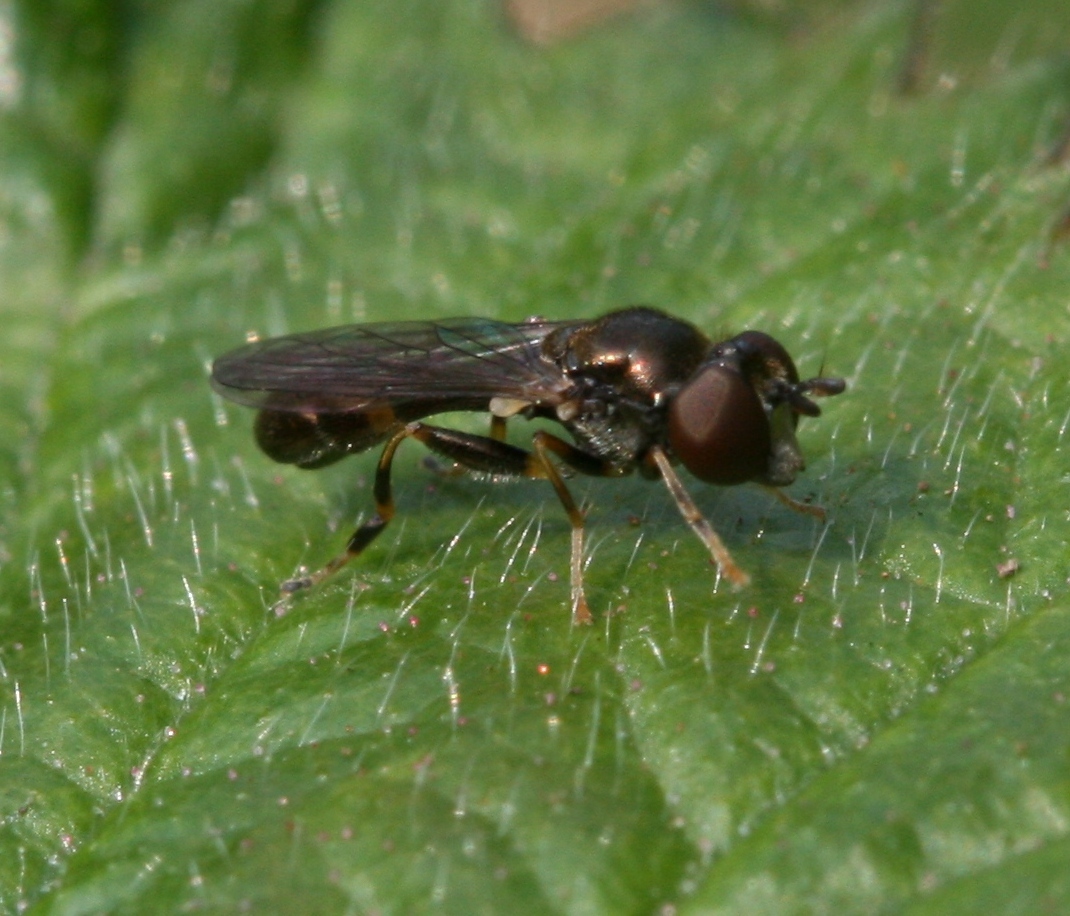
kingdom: Animalia
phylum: Arthropoda
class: Insecta
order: Diptera
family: Syrphidae
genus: Neoascia
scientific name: Neoascia meticulosa
